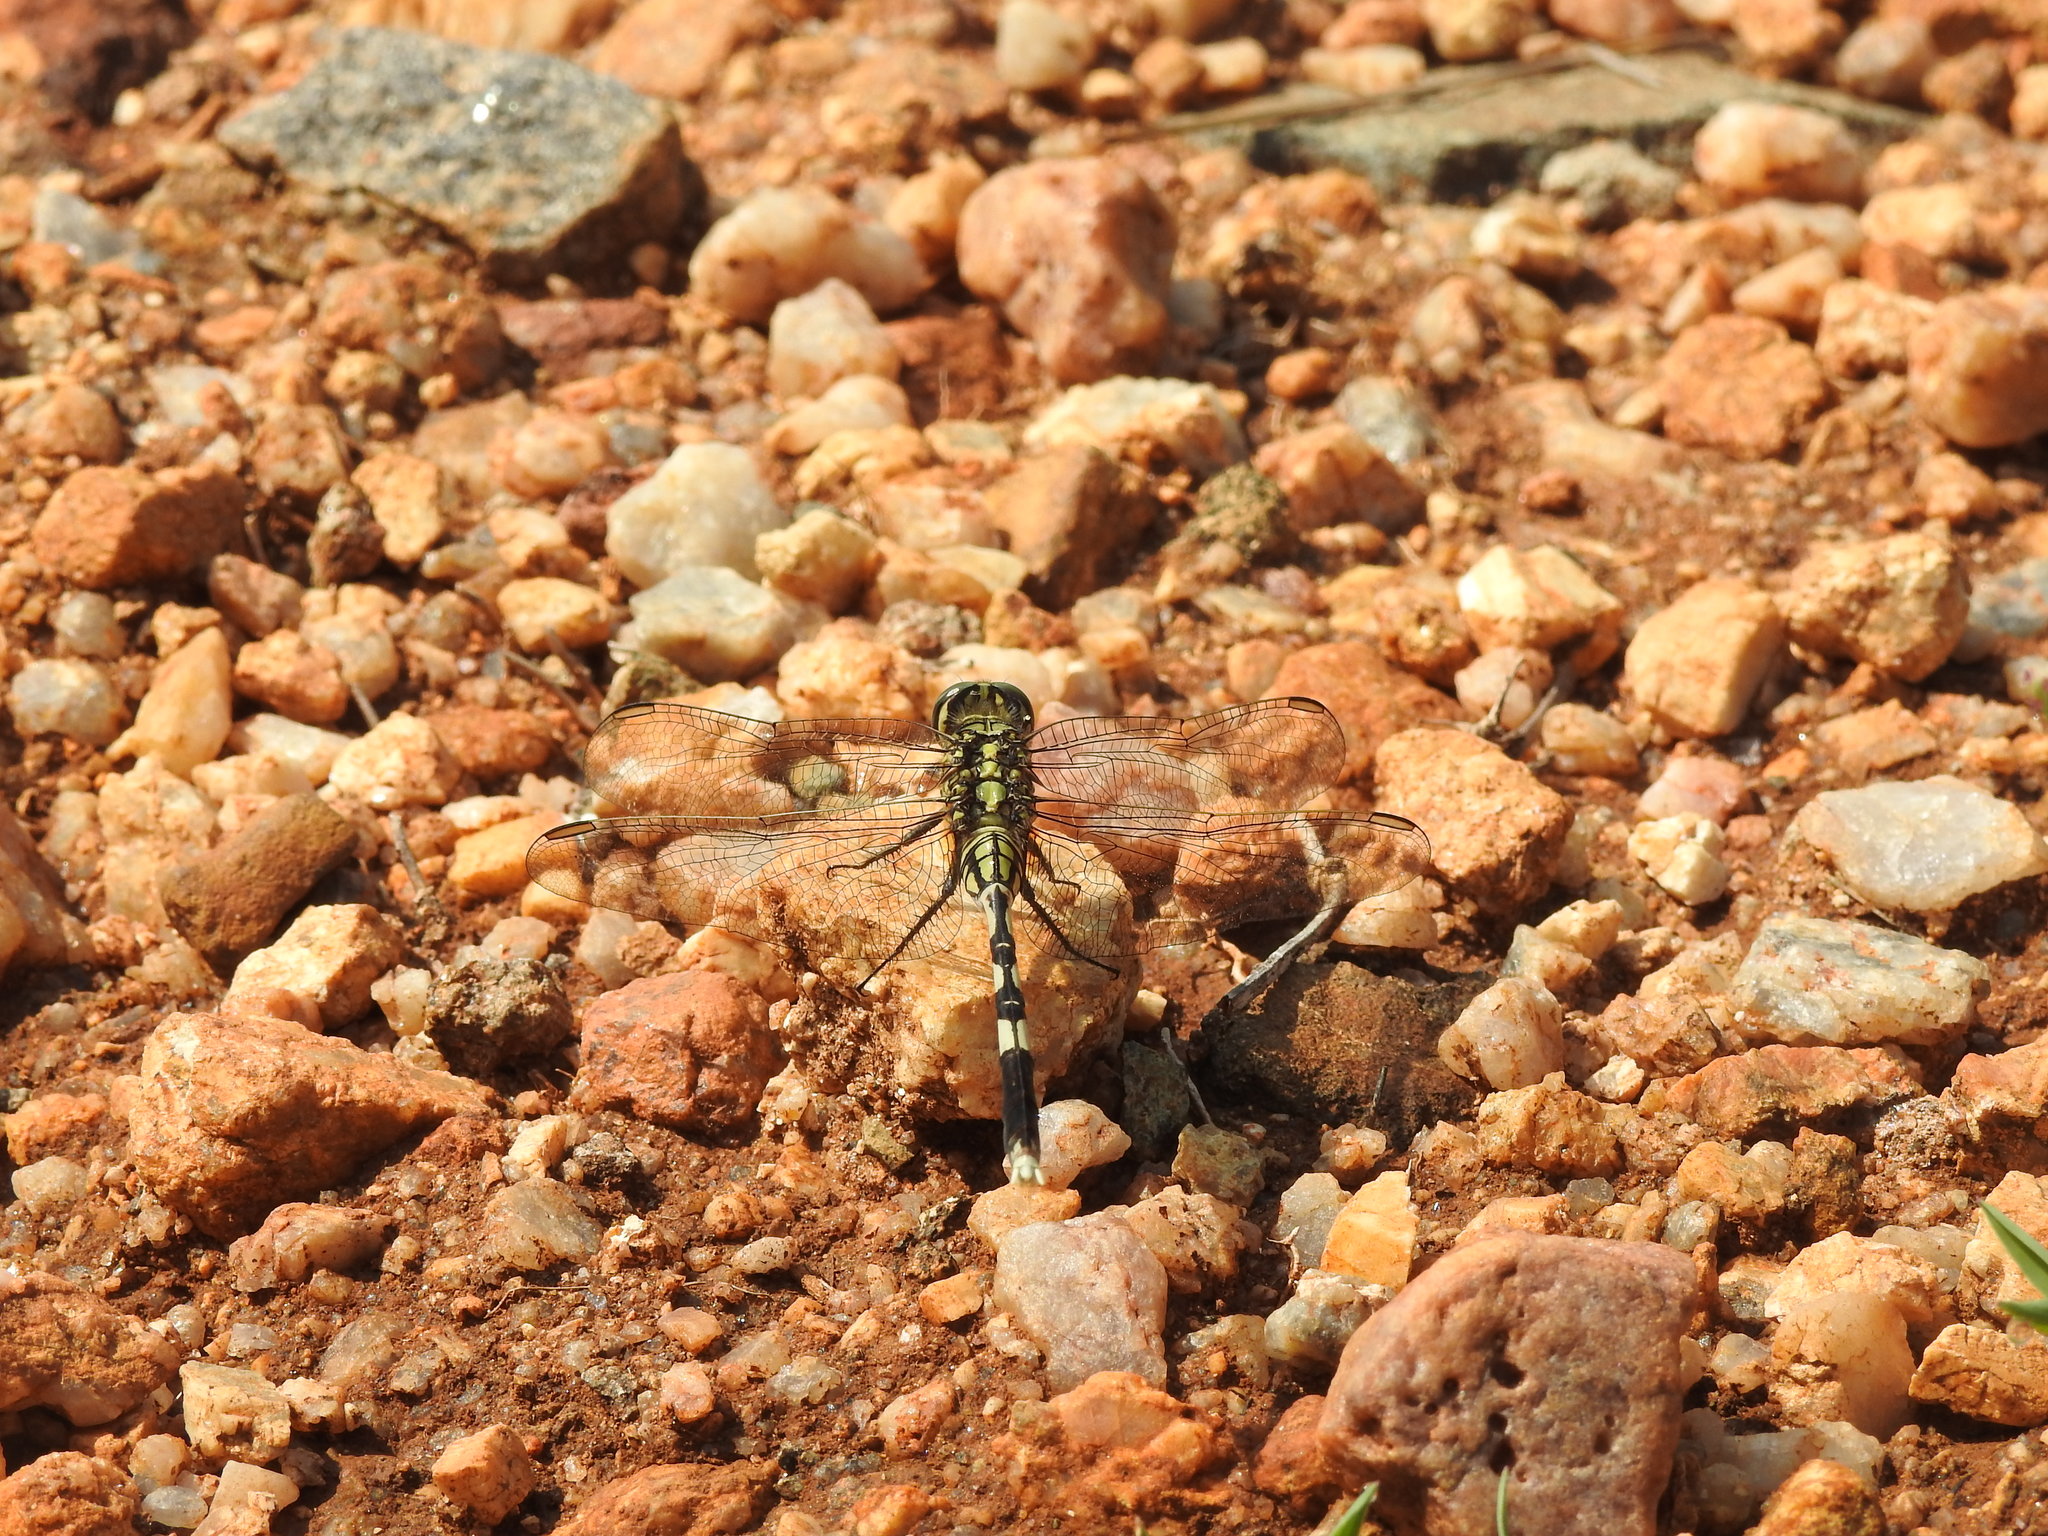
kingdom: Animalia
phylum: Arthropoda
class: Insecta
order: Odonata
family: Libellulidae
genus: Orthetrum
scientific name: Orthetrum sabina
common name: Slender skimmer
